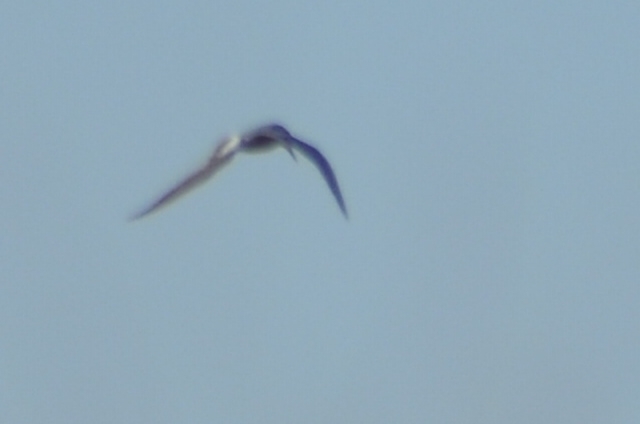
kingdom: Animalia
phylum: Chordata
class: Aves
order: Charadriiformes
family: Laridae
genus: Sterna
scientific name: Sterna trudeaui
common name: Snowy-crowned tern
